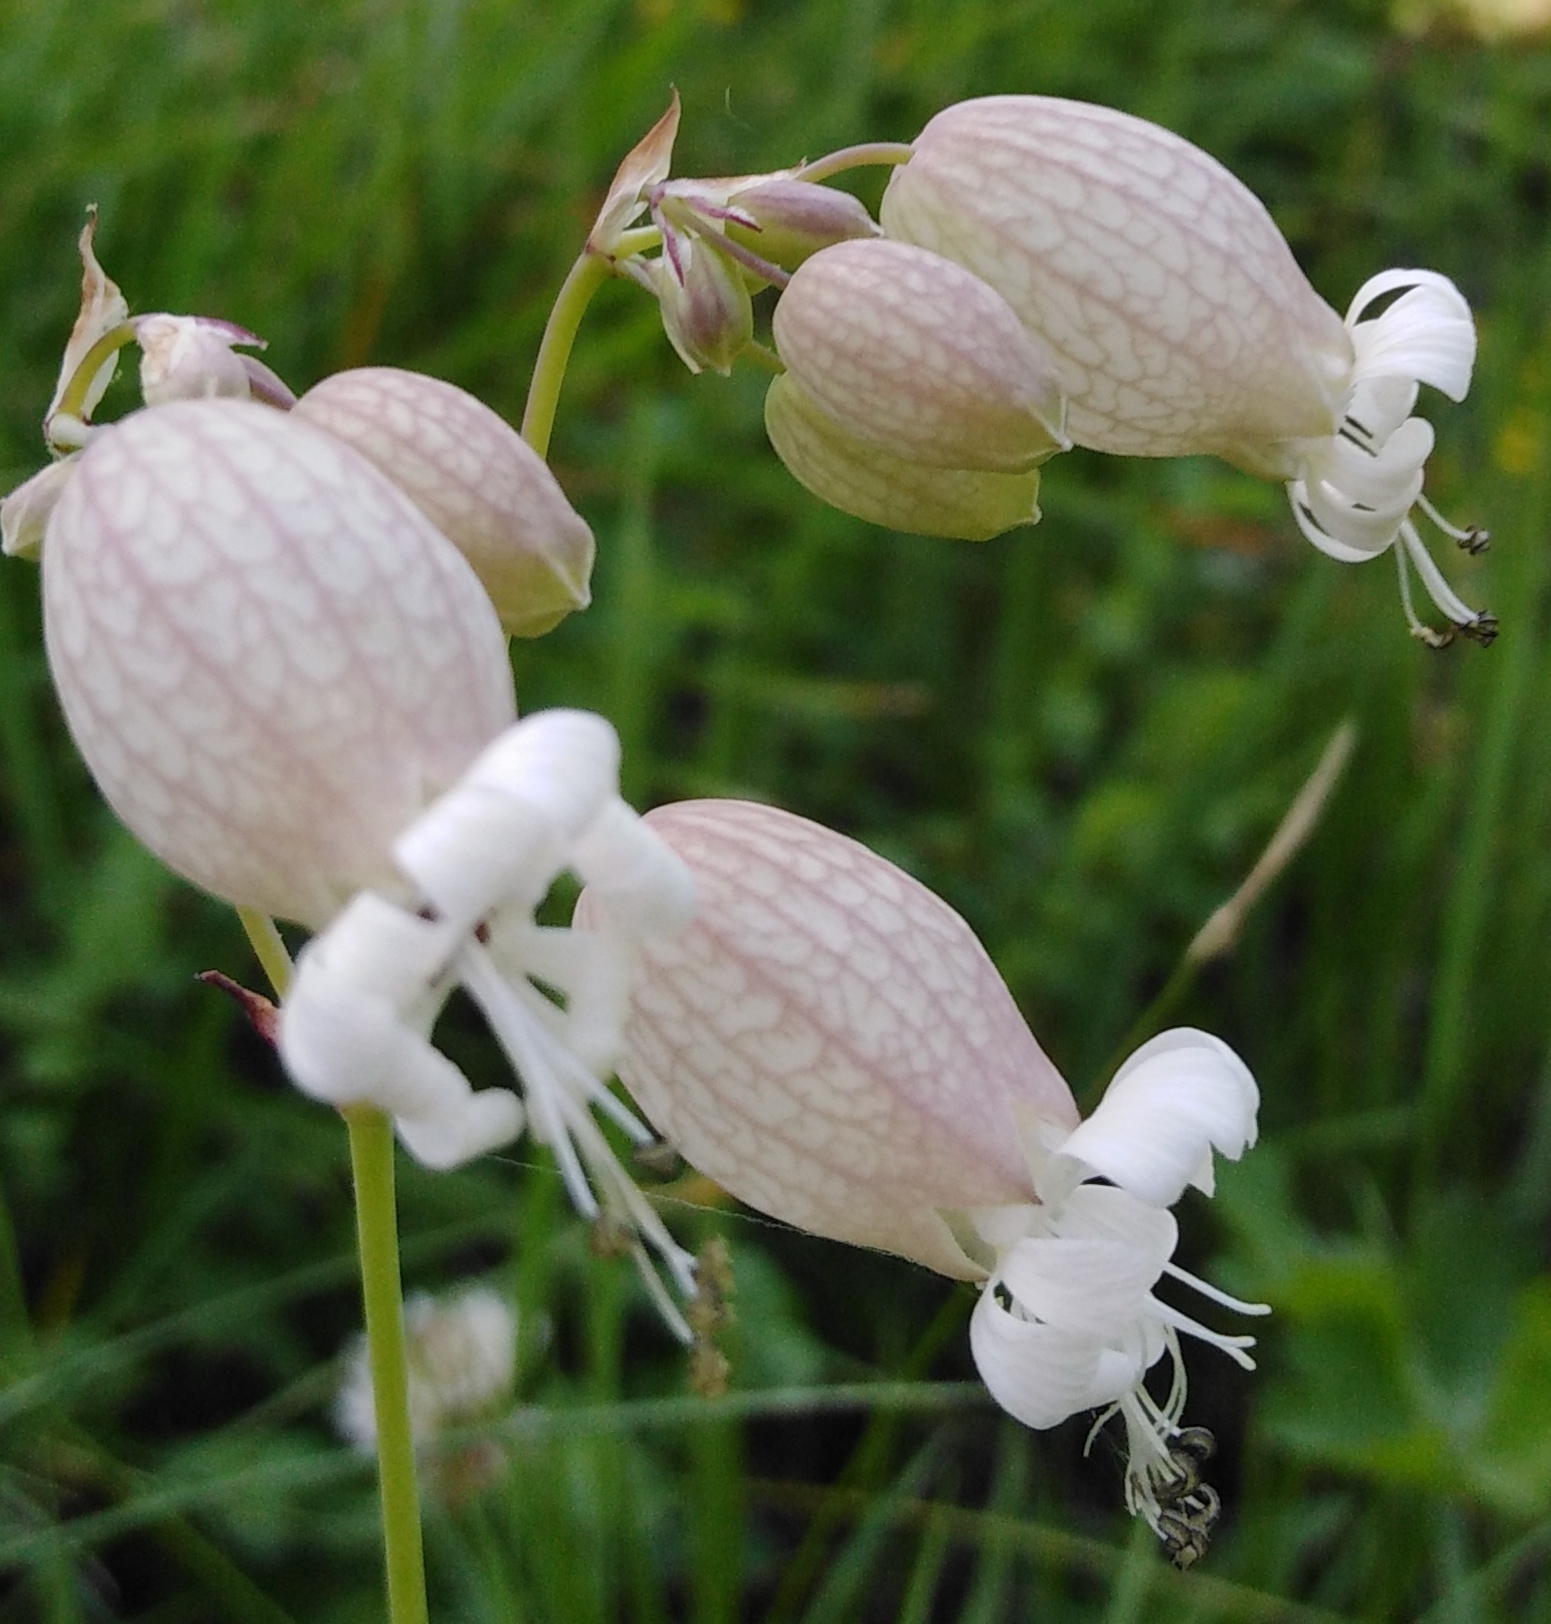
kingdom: Plantae
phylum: Tracheophyta
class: Magnoliopsida
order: Caryophyllales
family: Caryophyllaceae
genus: Silene
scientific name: Silene vulgaris
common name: Bladder campion
